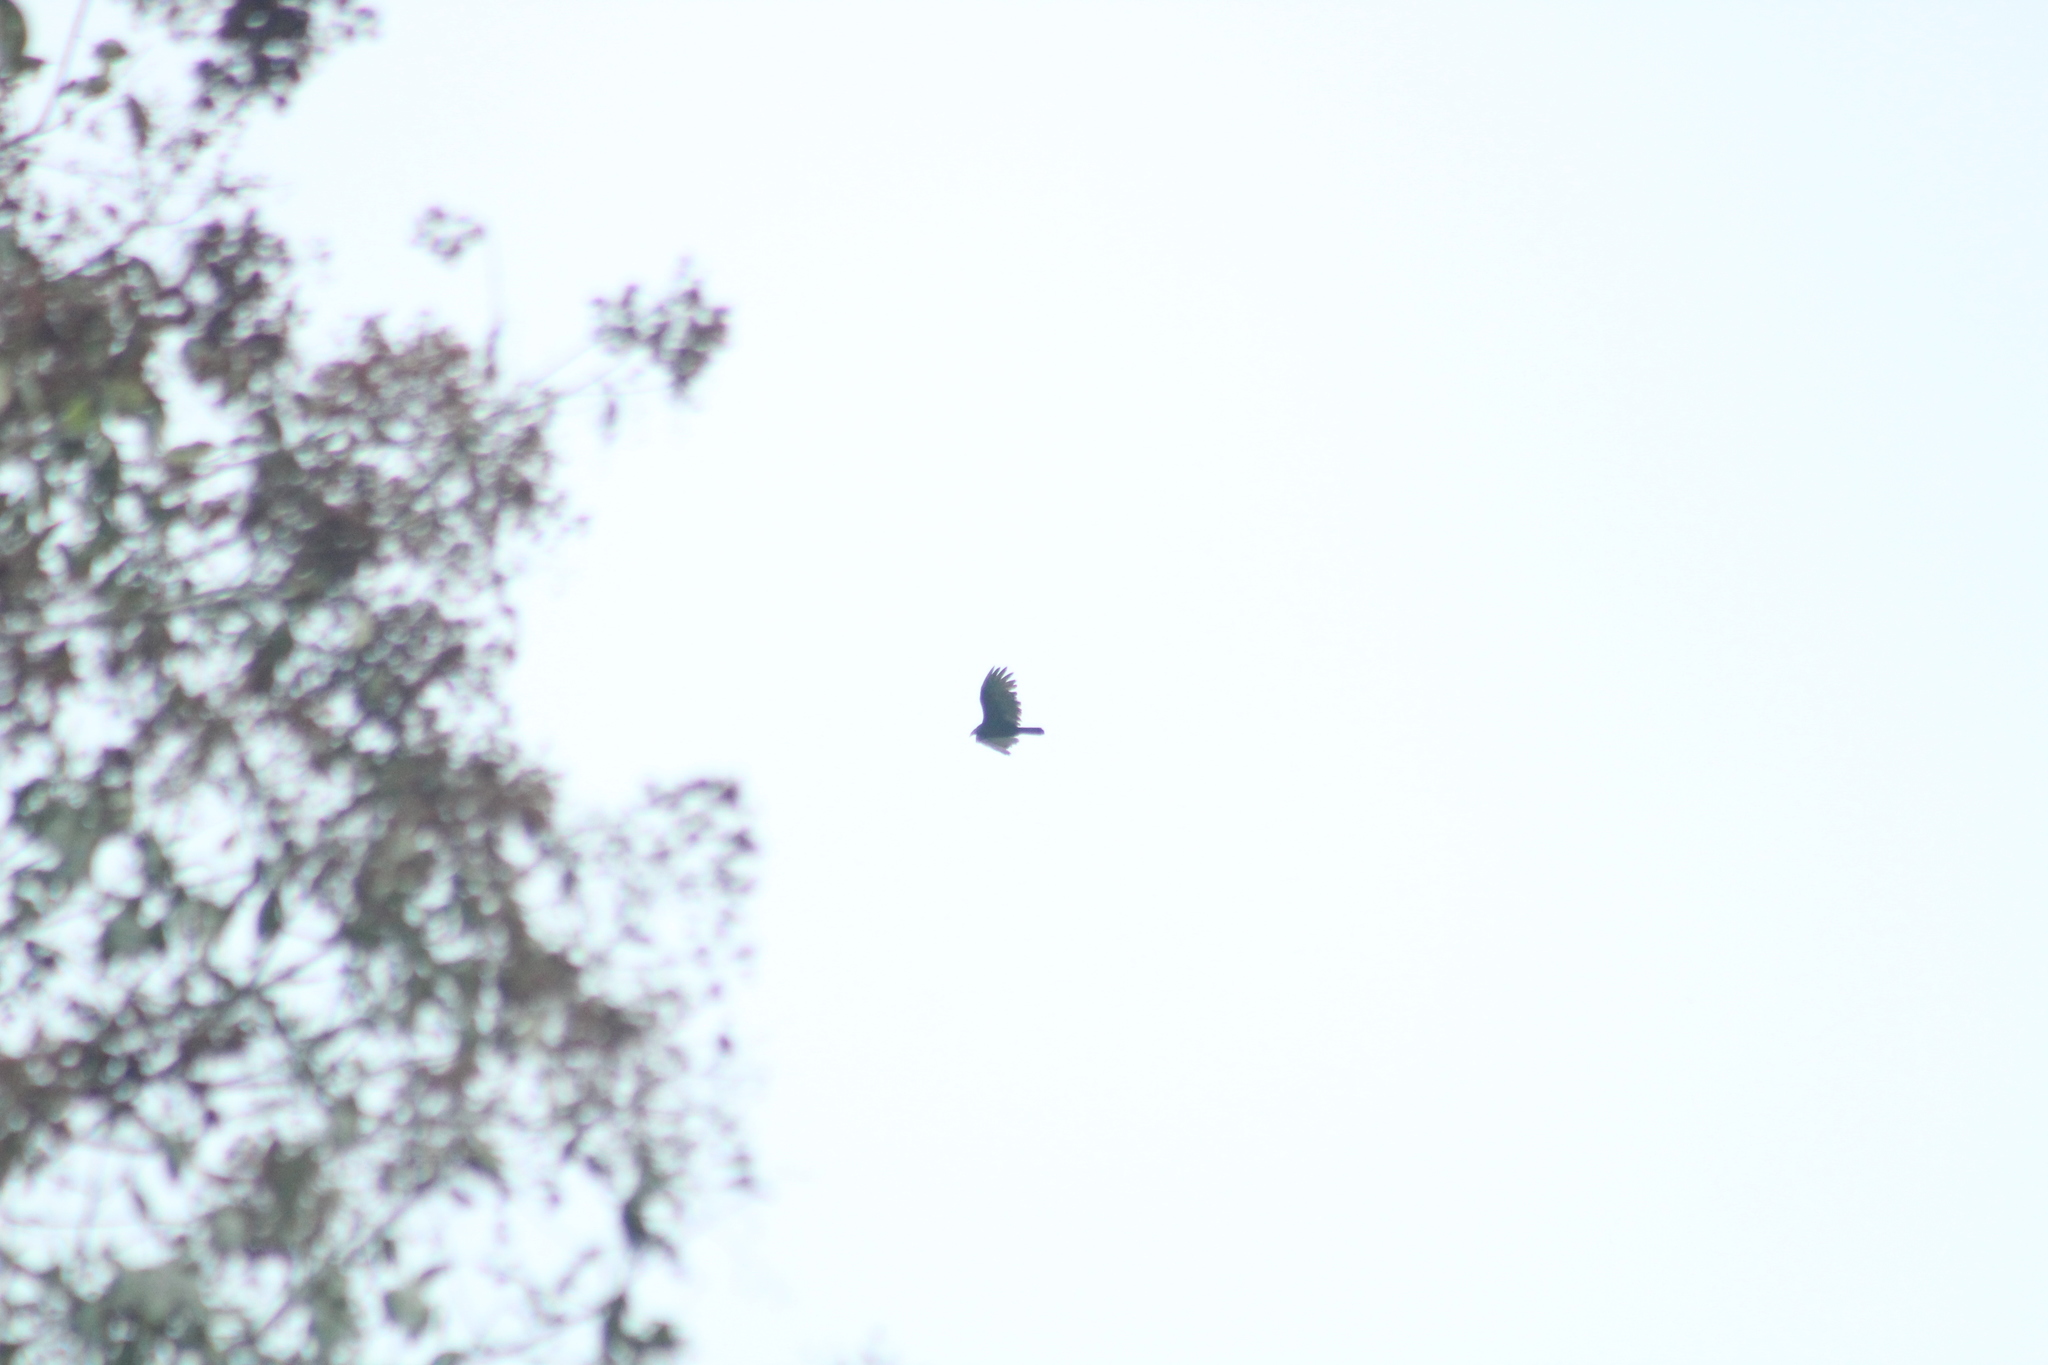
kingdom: Animalia
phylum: Chordata
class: Aves
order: Accipitriformes
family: Cathartidae
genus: Cathartes
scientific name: Cathartes aura
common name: Turkey vulture
